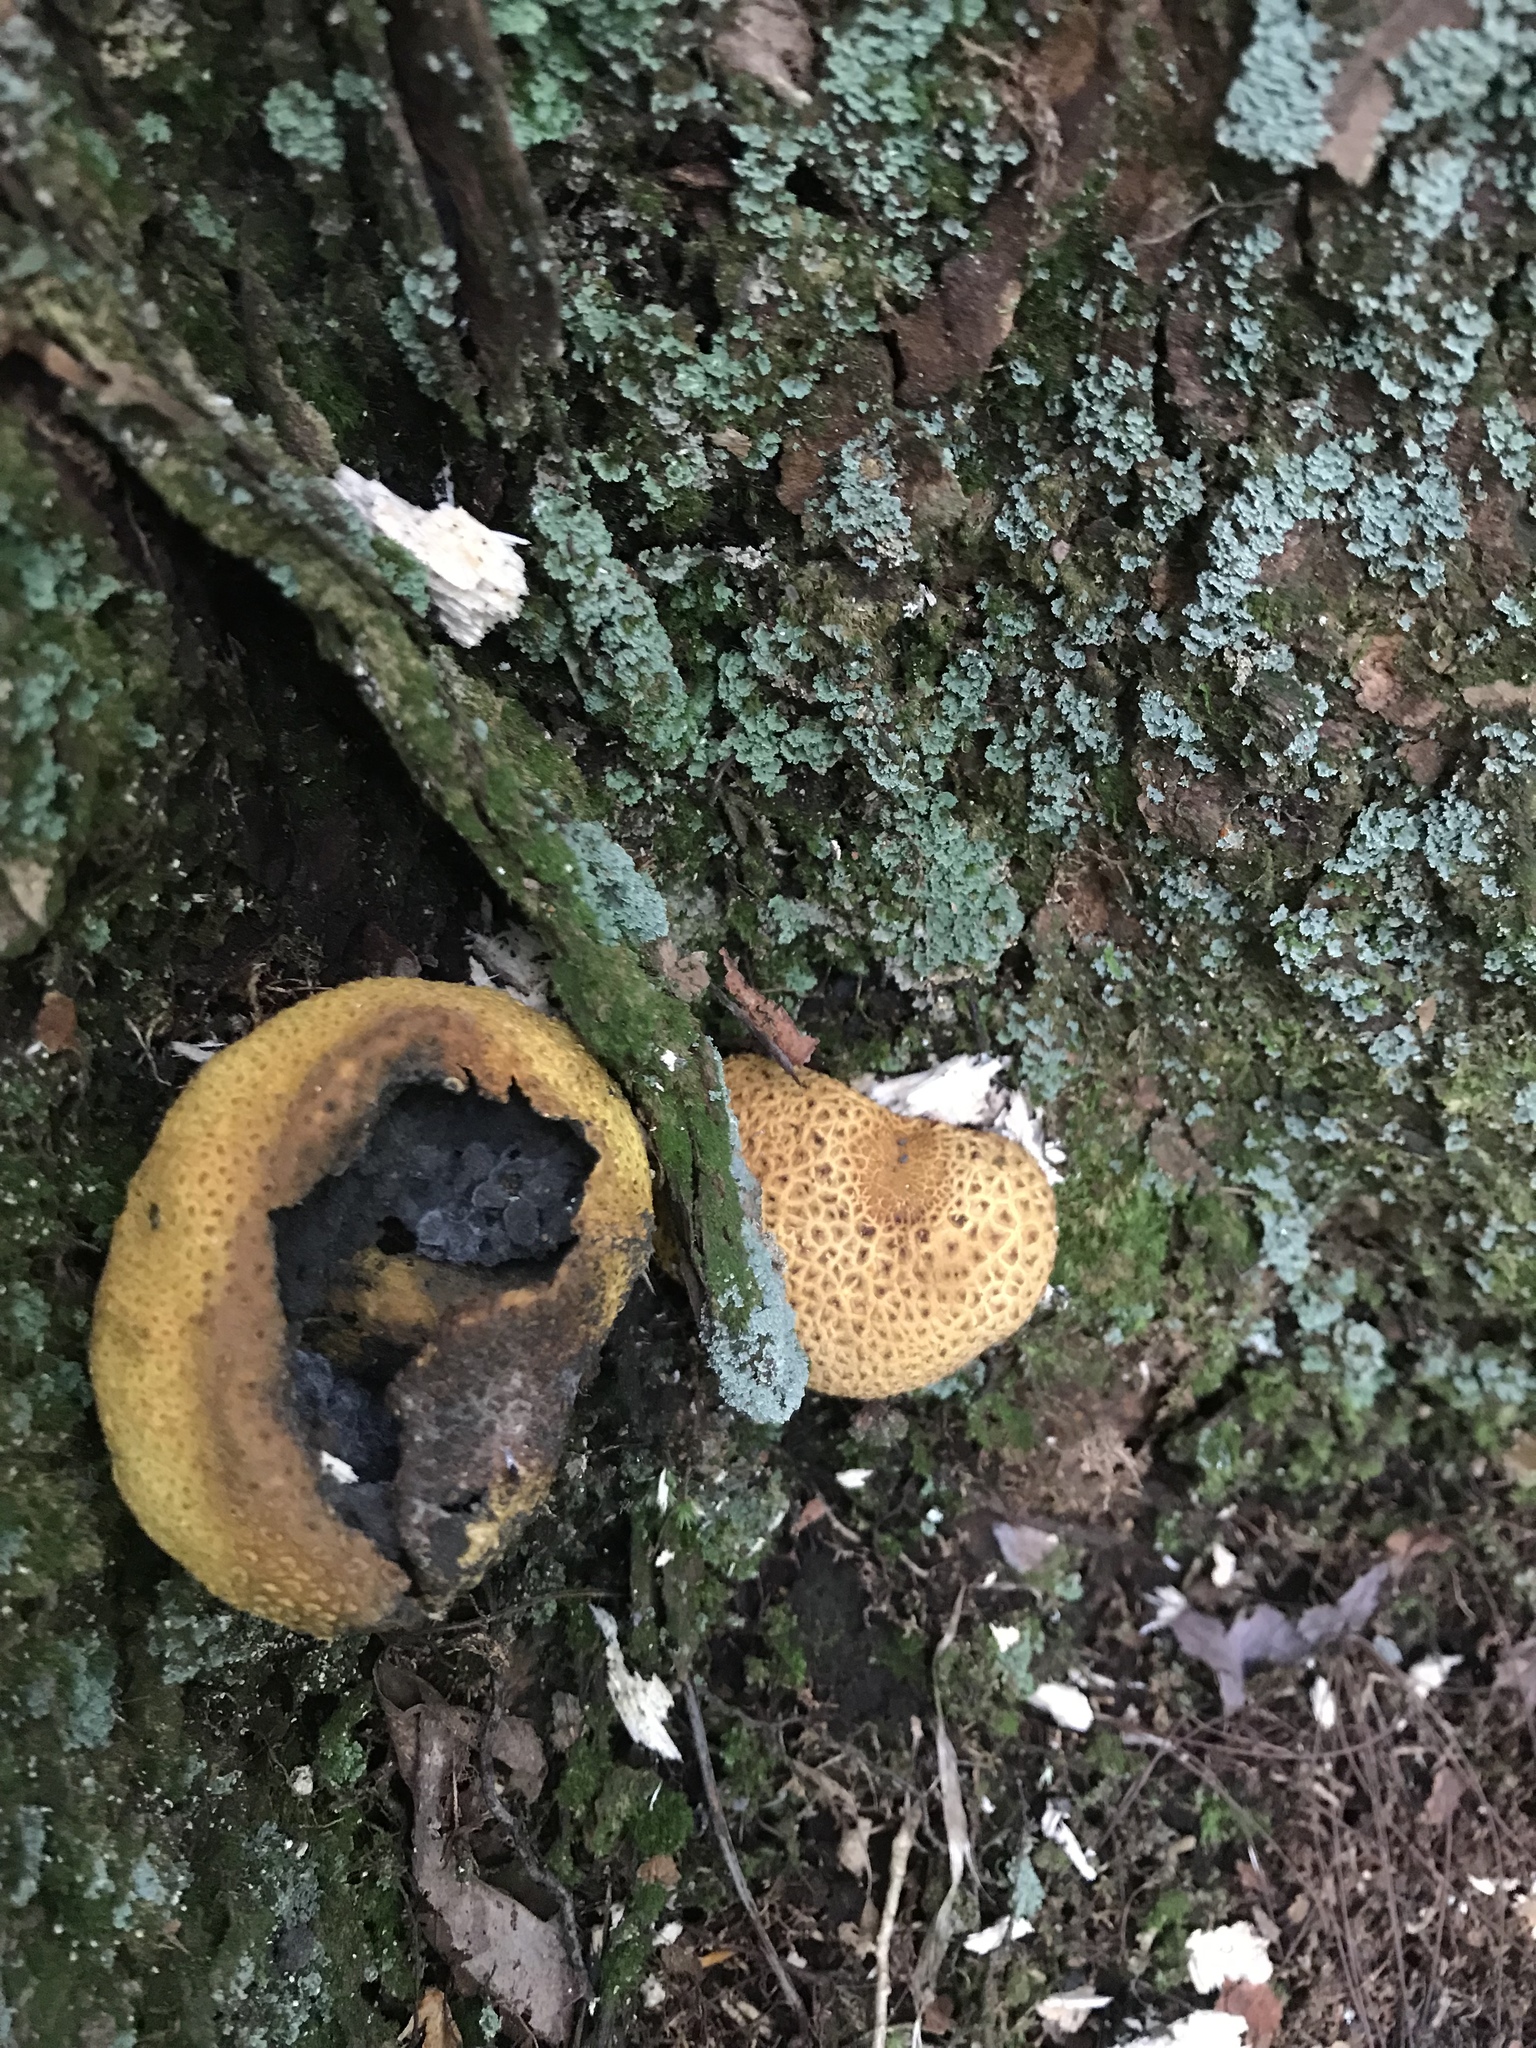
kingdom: Fungi
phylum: Basidiomycota
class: Agaricomycetes
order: Boletales
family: Sclerodermataceae
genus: Scleroderma
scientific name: Scleroderma citrinum
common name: Common earthball
